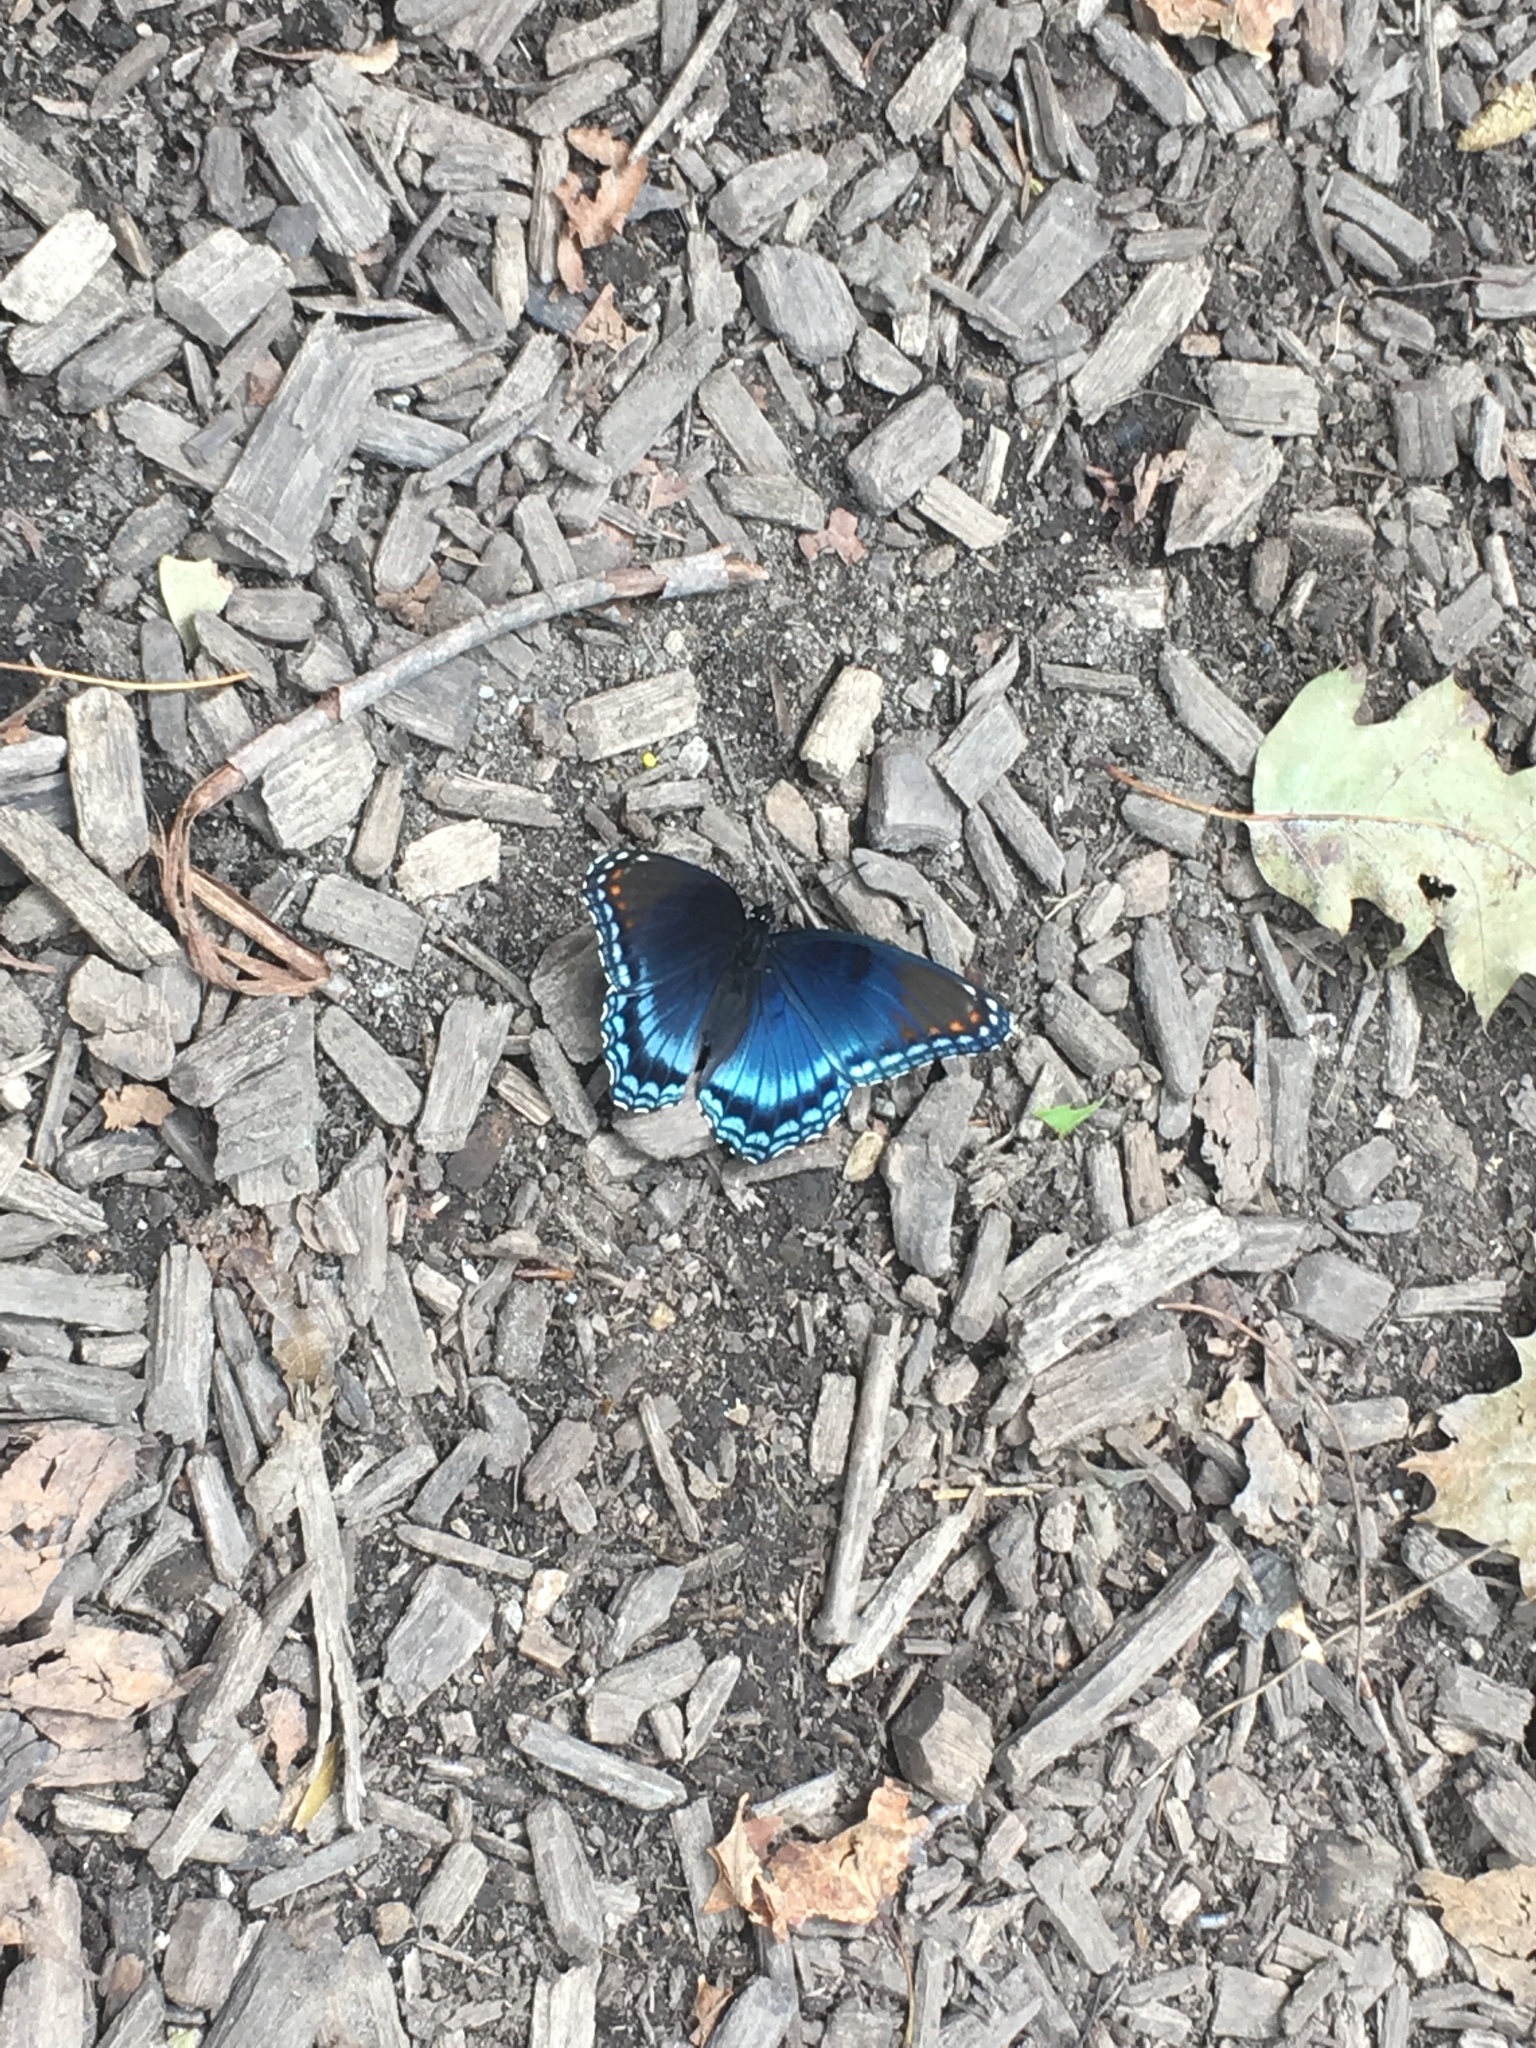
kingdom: Animalia
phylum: Arthropoda
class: Insecta
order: Lepidoptera
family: Nymphalidae
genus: Limenitis
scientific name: Limenitis arthemis
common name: Red-spotted admiral
